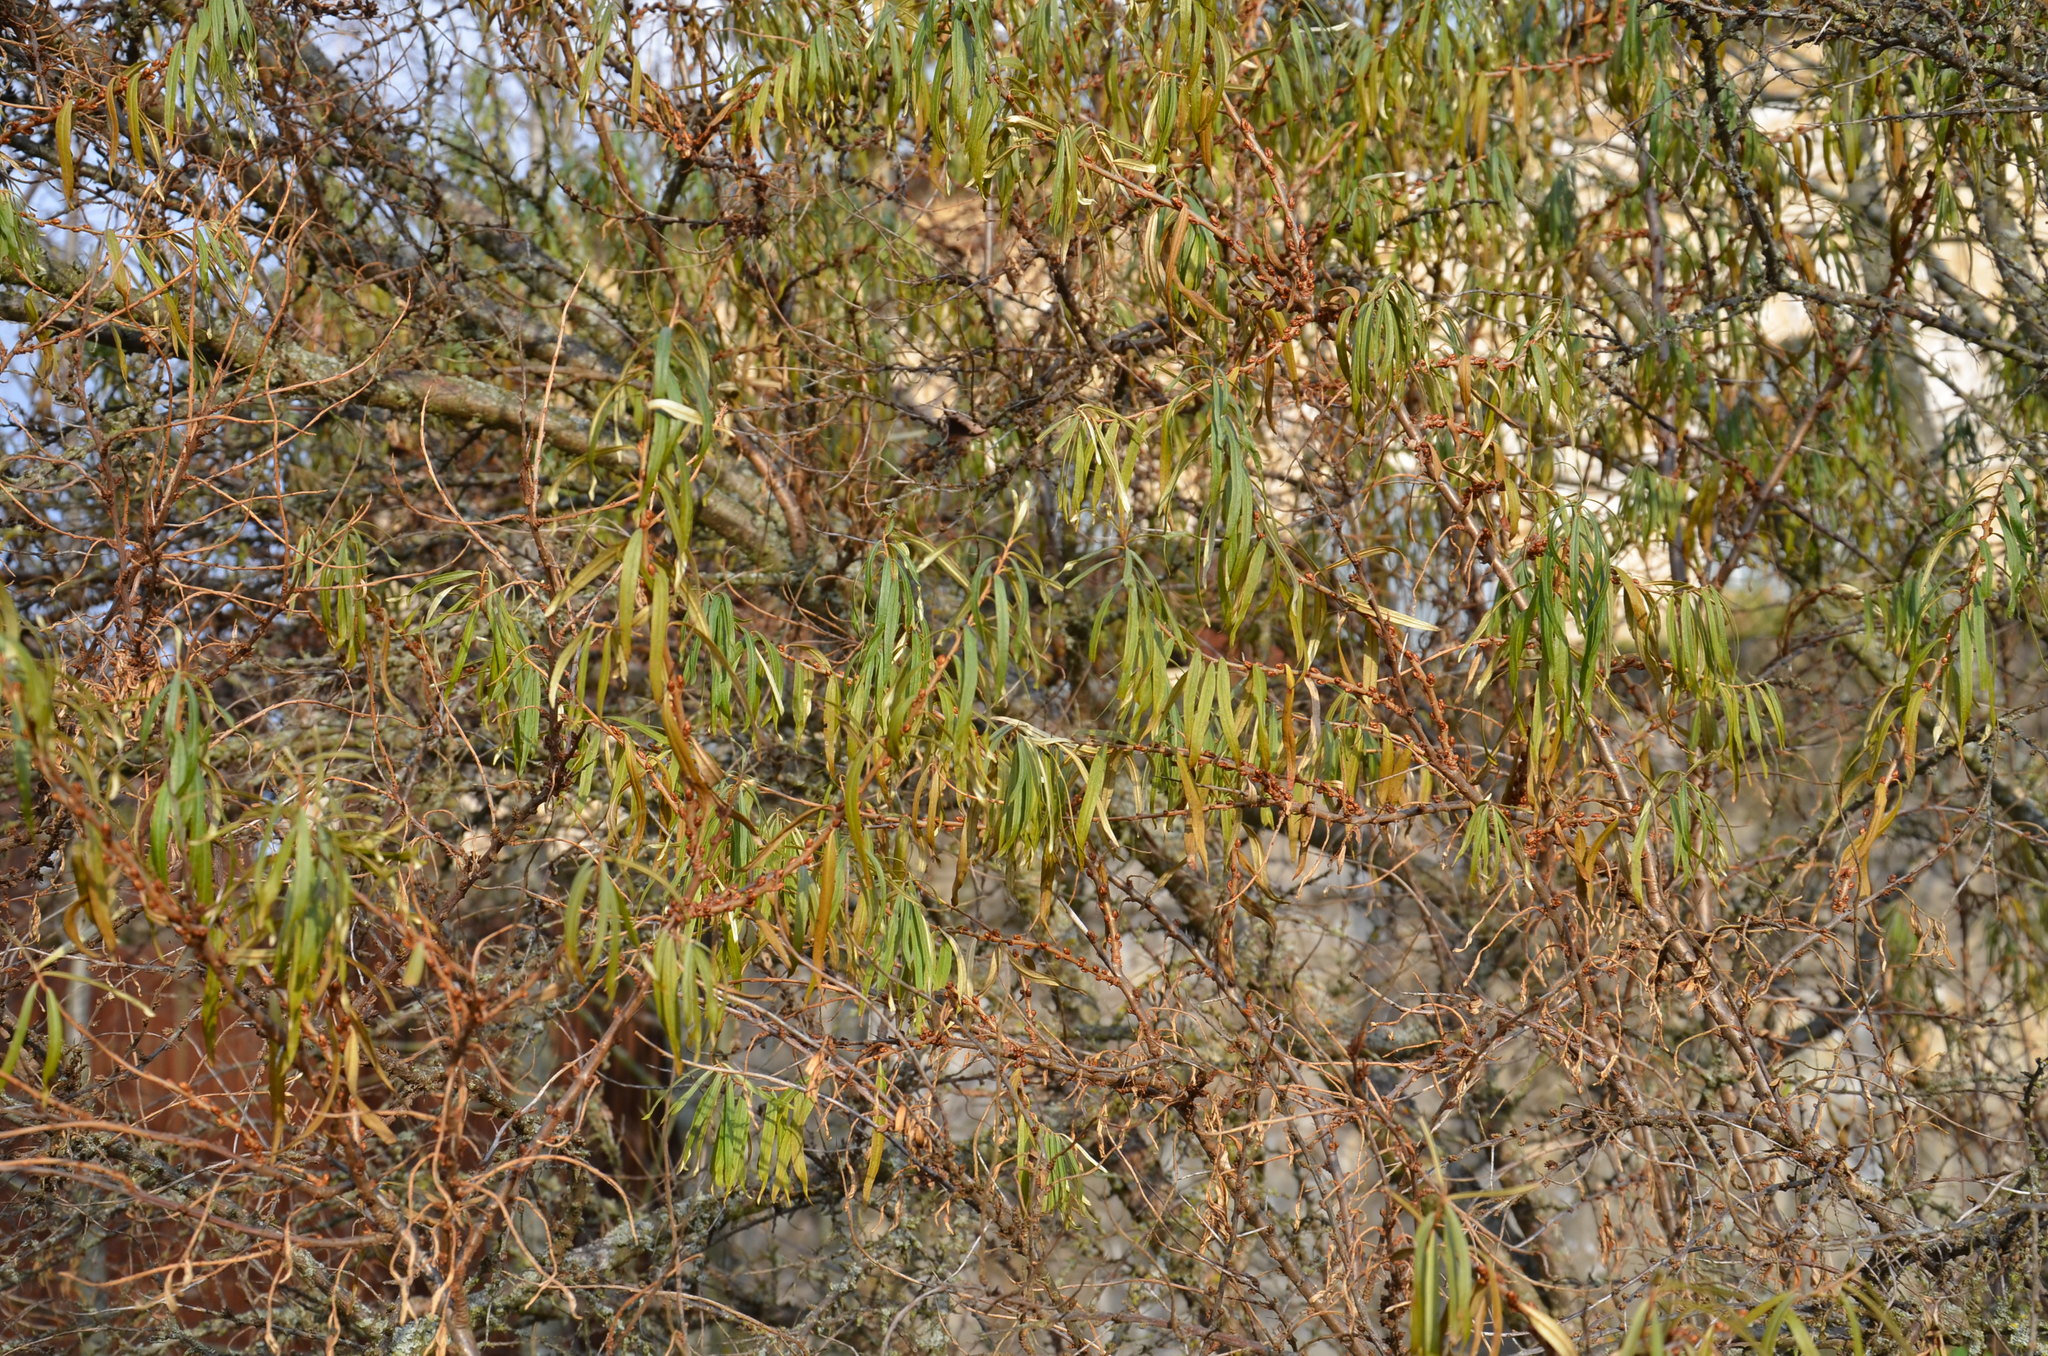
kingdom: Plantae
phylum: Tracheophyta
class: Magnoliopsida
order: Rosales
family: Elaeagnaceae
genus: Hippophae
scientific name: Hippophae rhamnoides
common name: Sea-buckthorn
